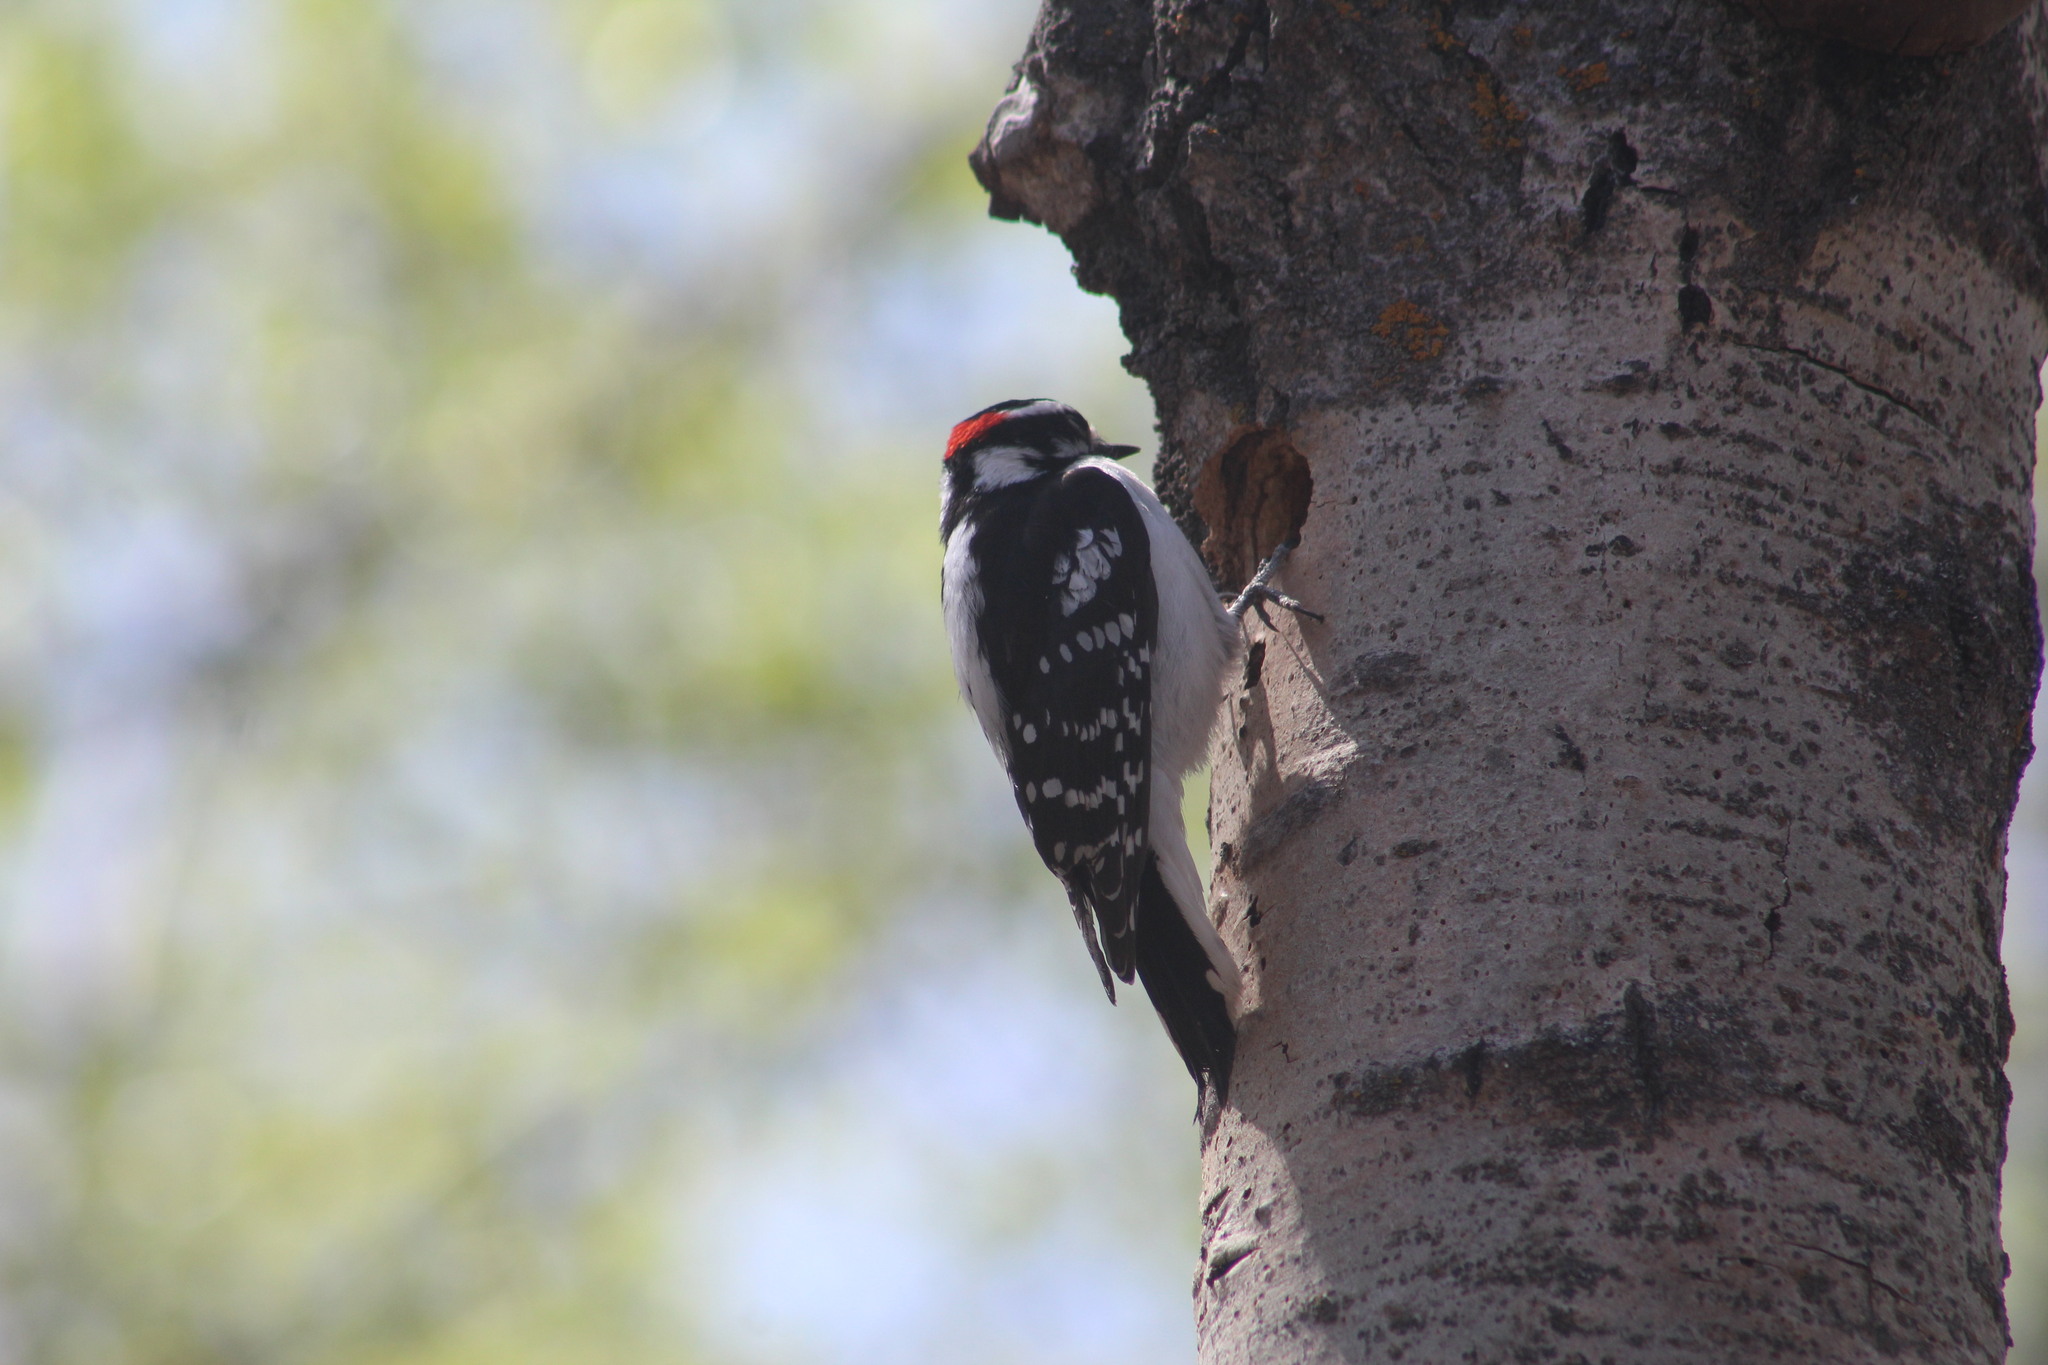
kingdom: Animalia
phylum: Chordata
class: Aves
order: Piciformes
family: Picidae
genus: Dryobates
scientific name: Dryobates pubescens
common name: Downy woodpecker
